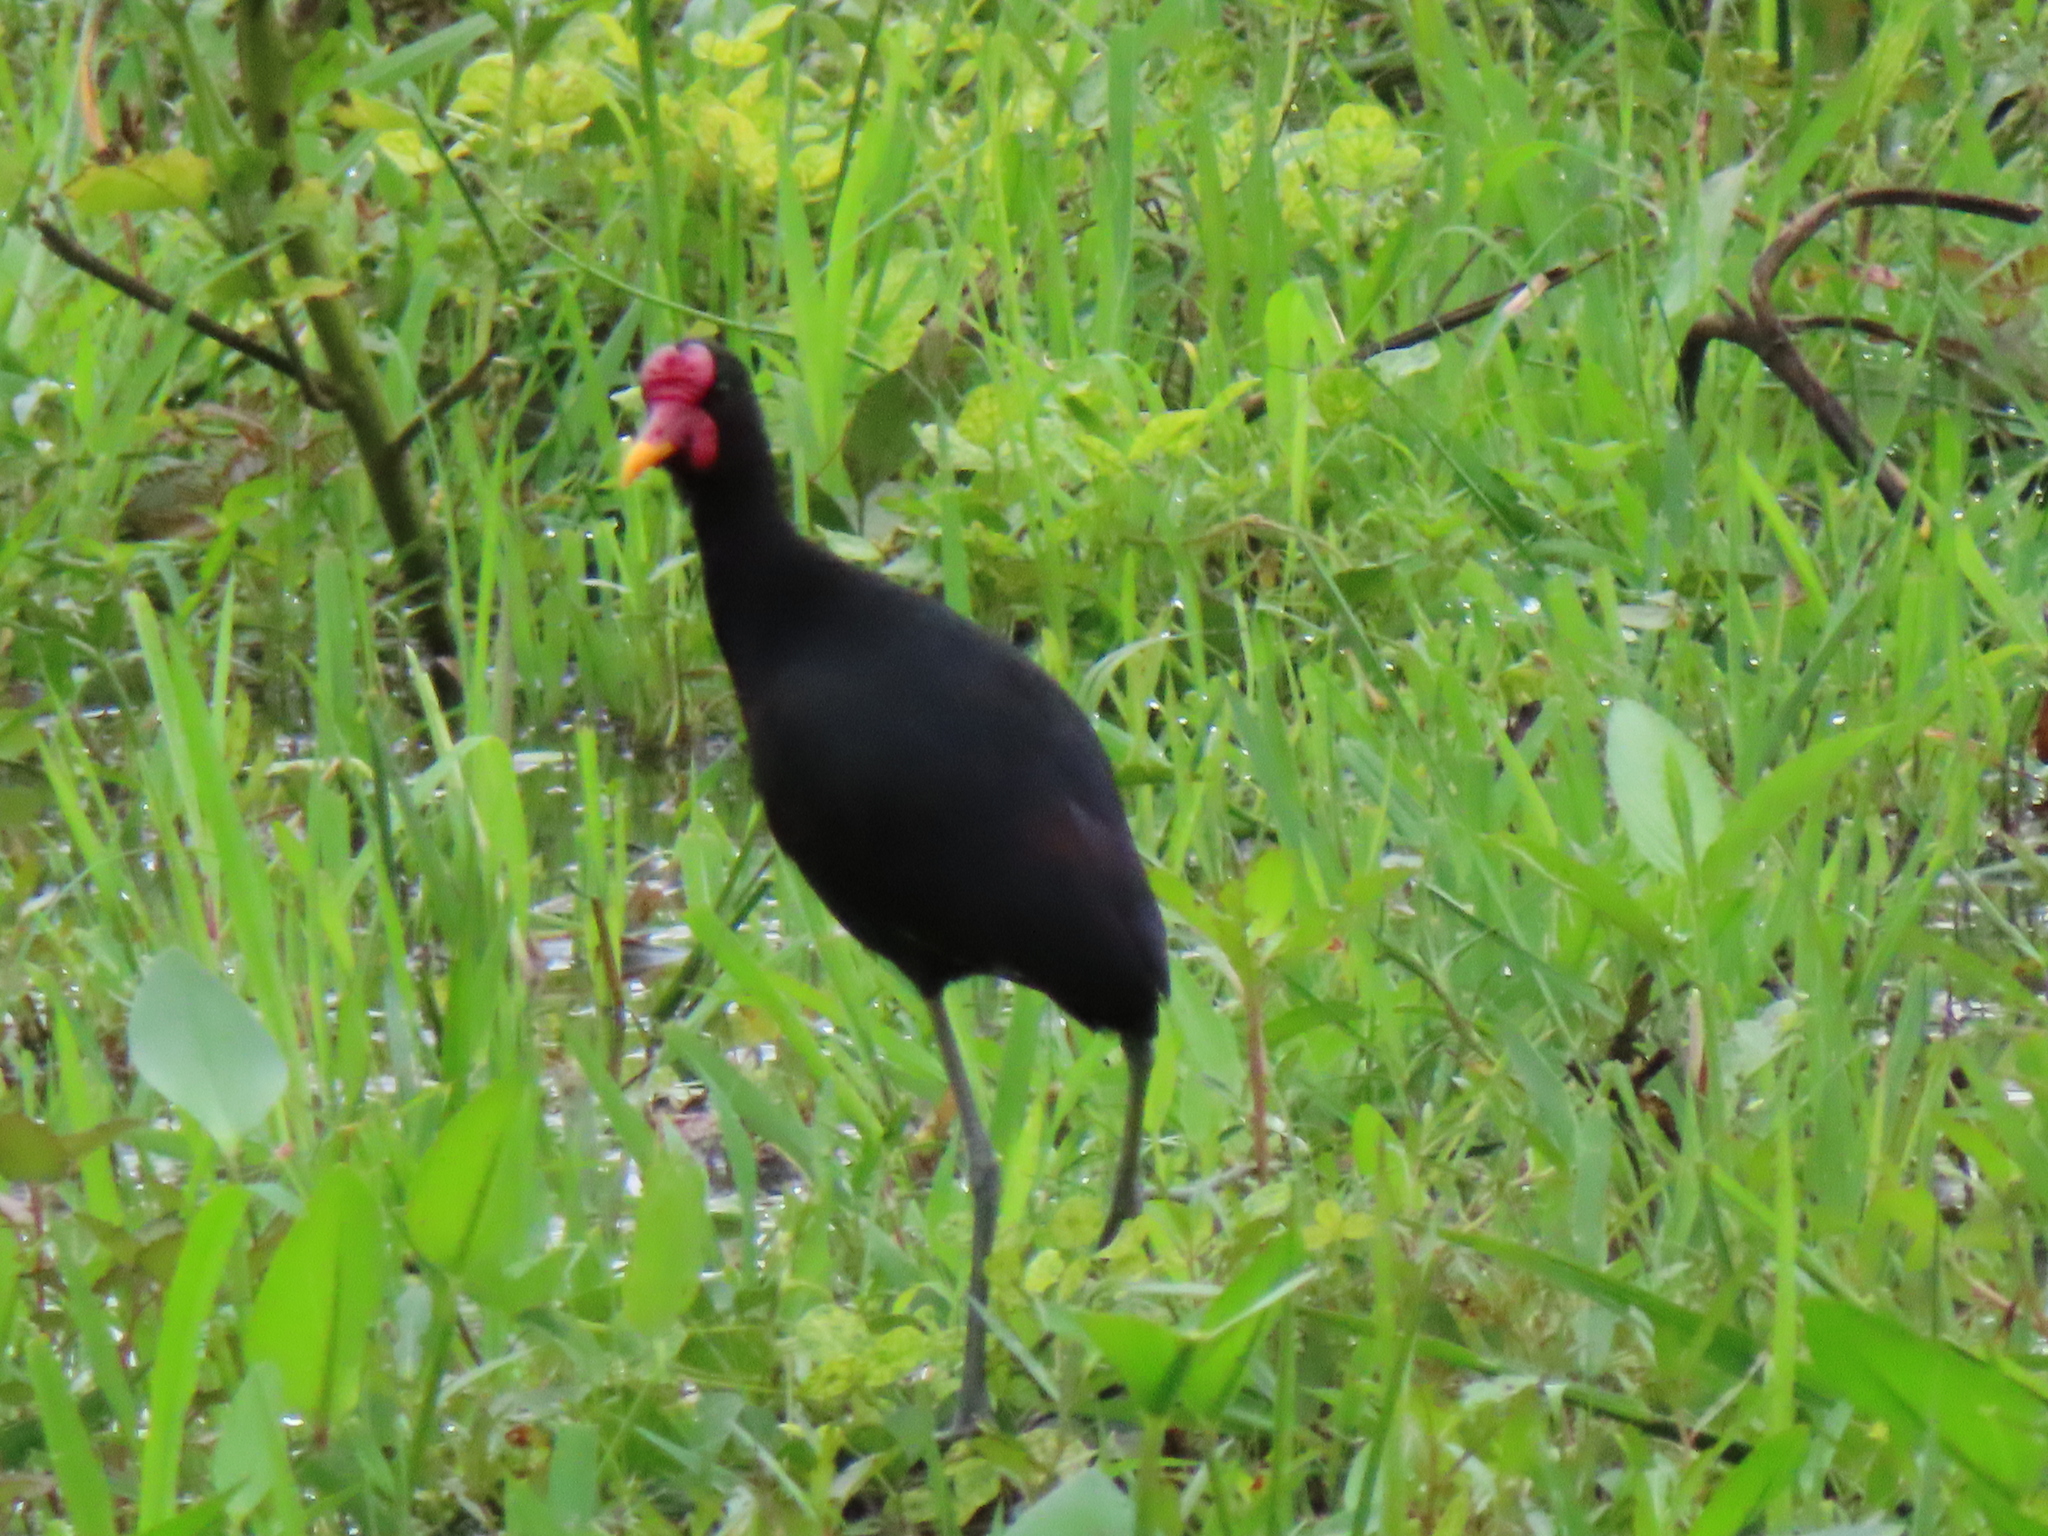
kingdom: Animalia
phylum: Chordata
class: Aves
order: Charadriiformes
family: Jacanidae
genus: Jacana
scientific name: Jacana jacana
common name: Wattled jacana
